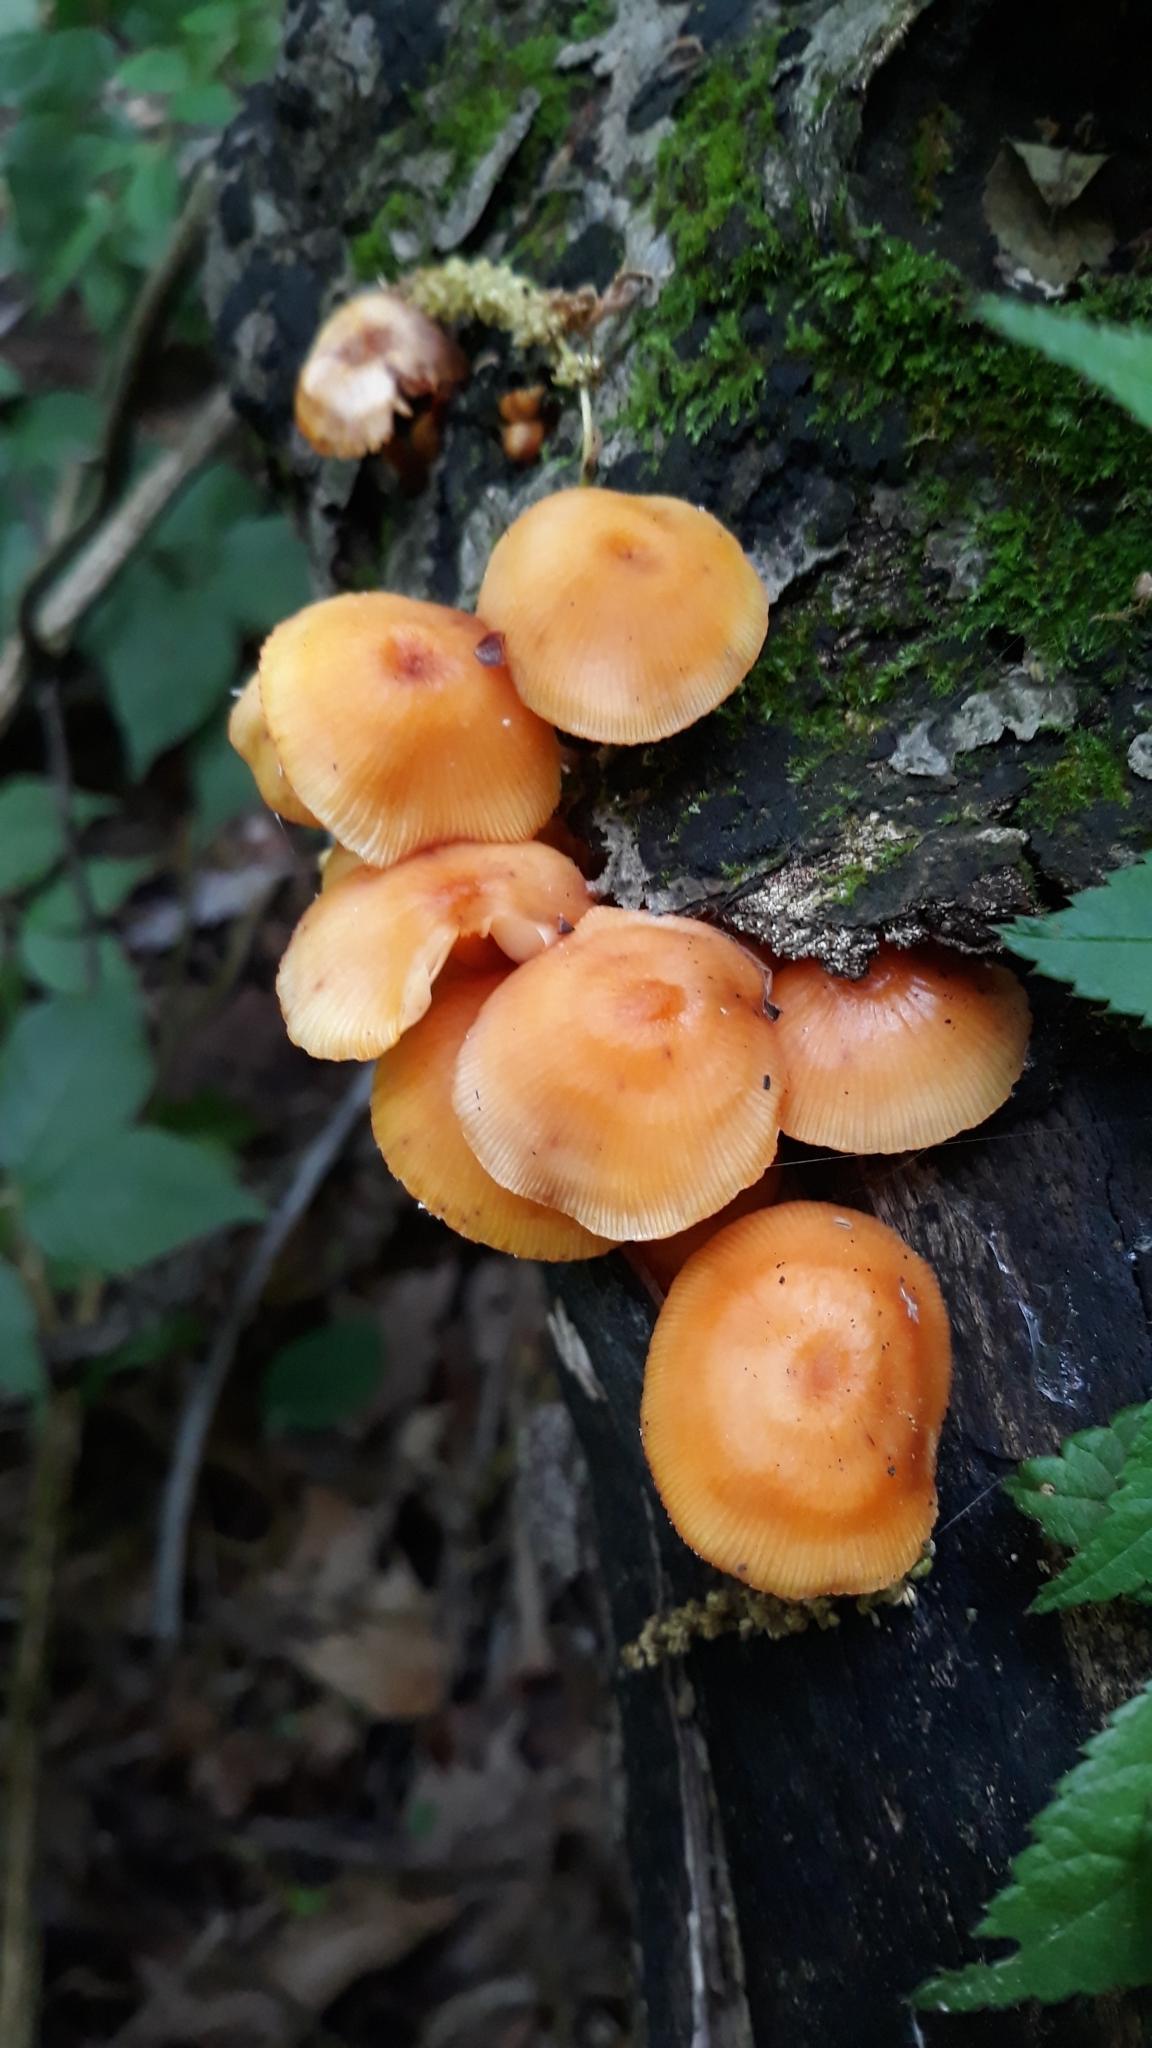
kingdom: Fungi
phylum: Basidiomycota
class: Agaricomycetes
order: Agaricales
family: Mycenaceae
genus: Mycena
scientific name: Mycena leaiana
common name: Orange mycena
